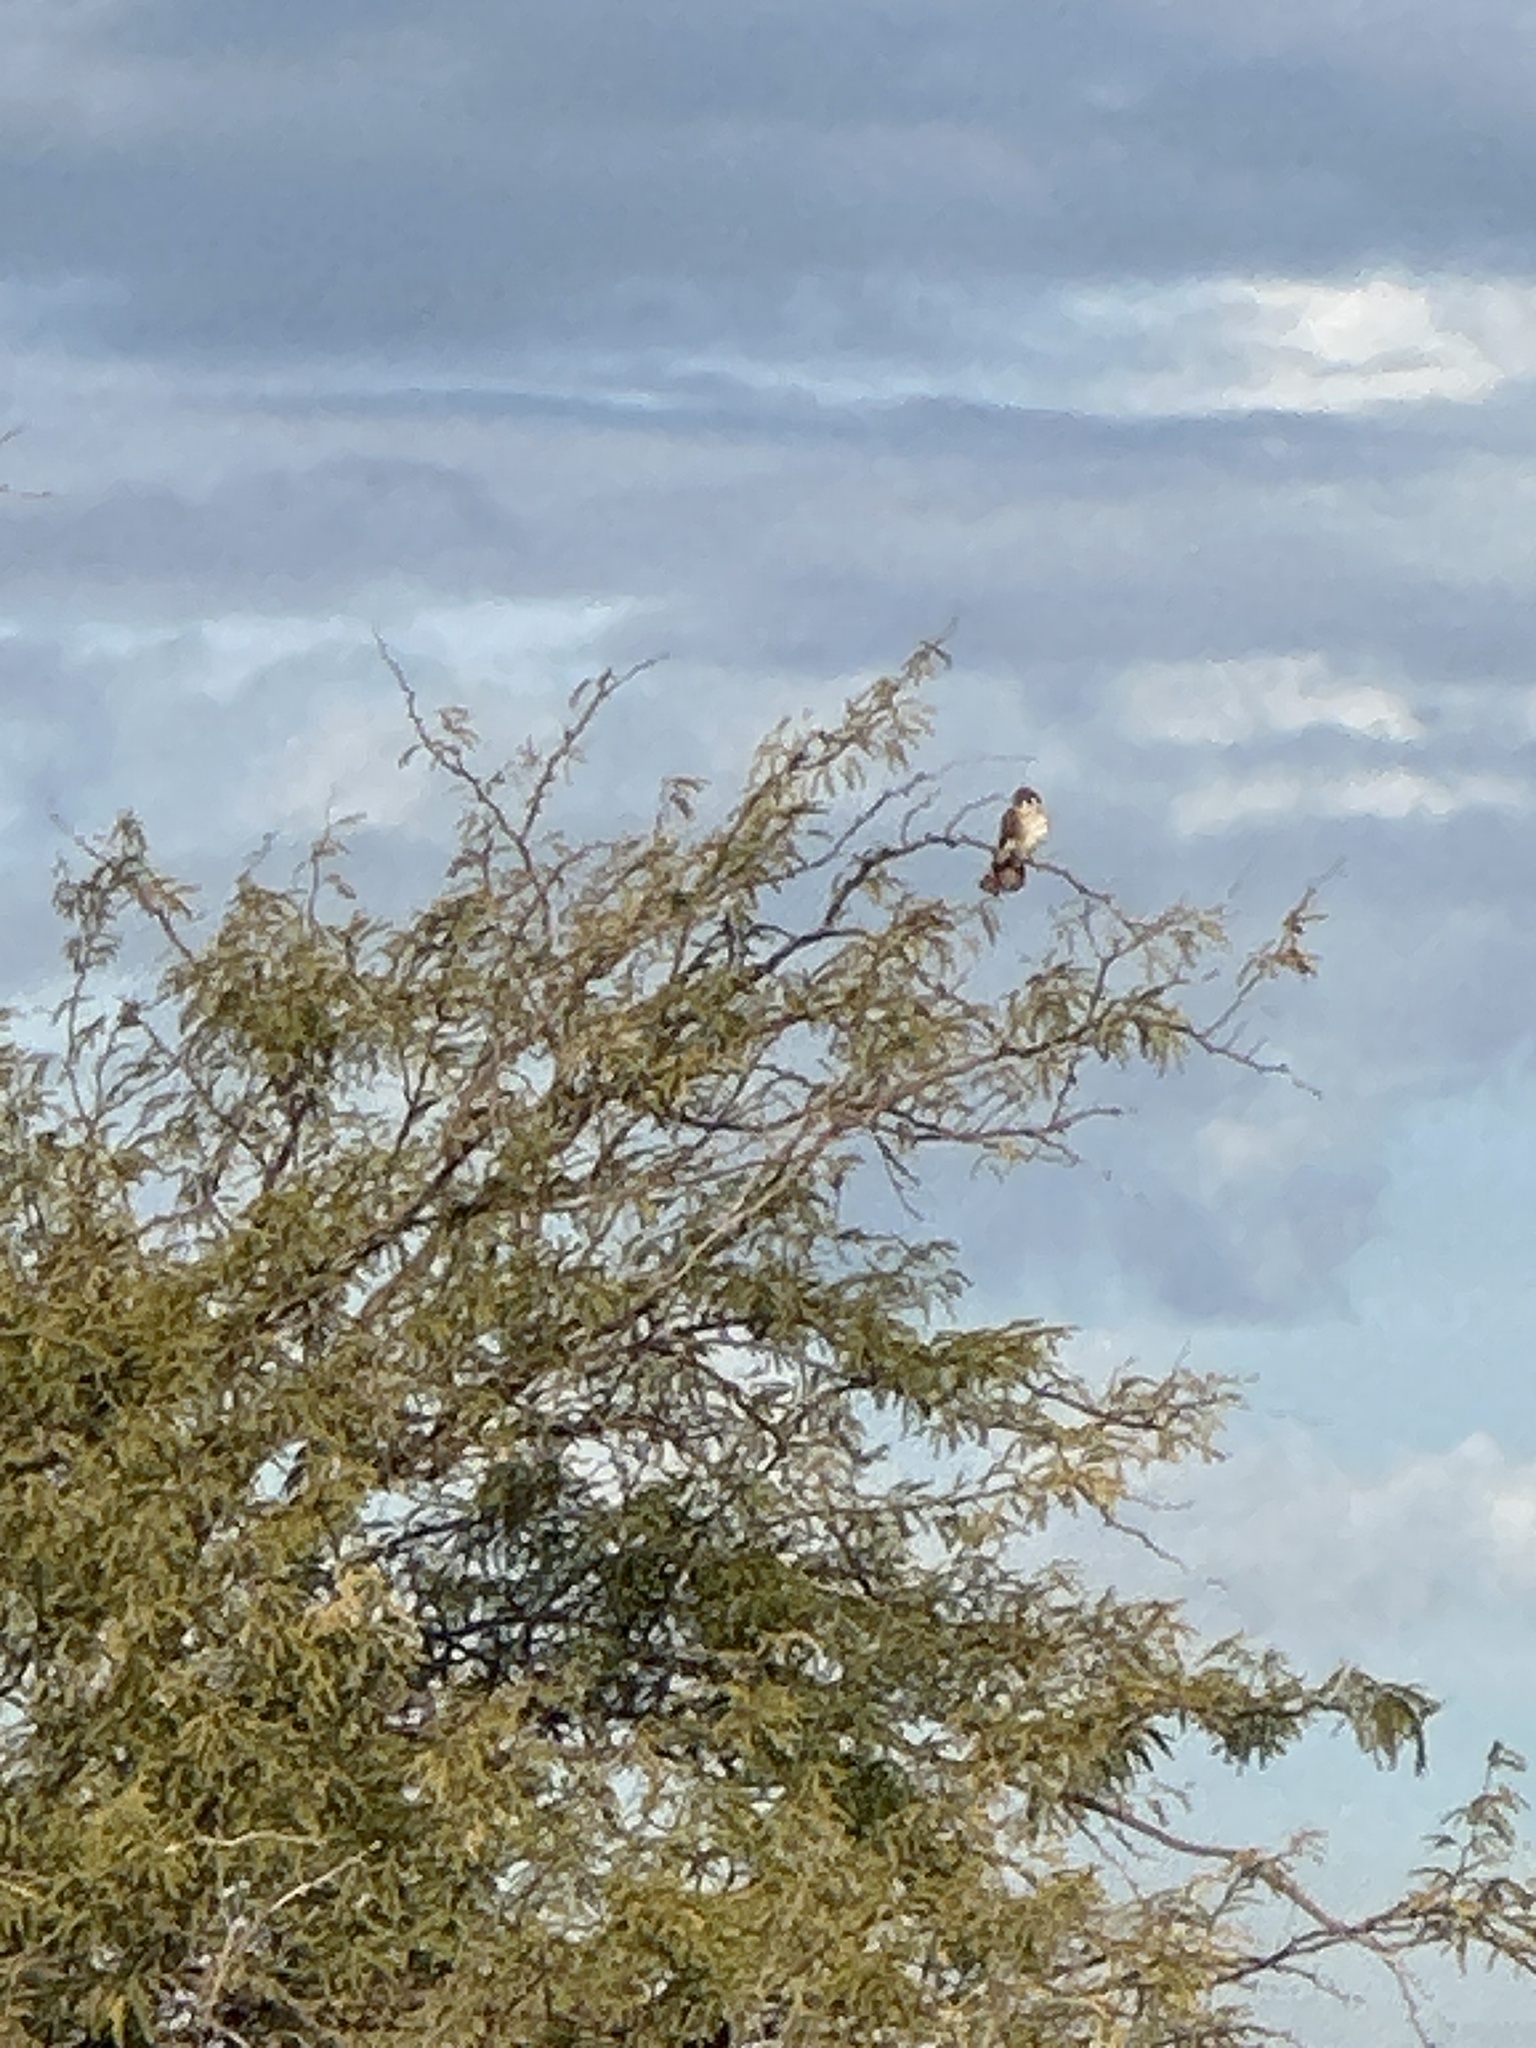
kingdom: Animalia
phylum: Chordata
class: Aves
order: Falconiformes
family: Falconidae
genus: Falco
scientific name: Falco sparverius
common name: American kestrel
